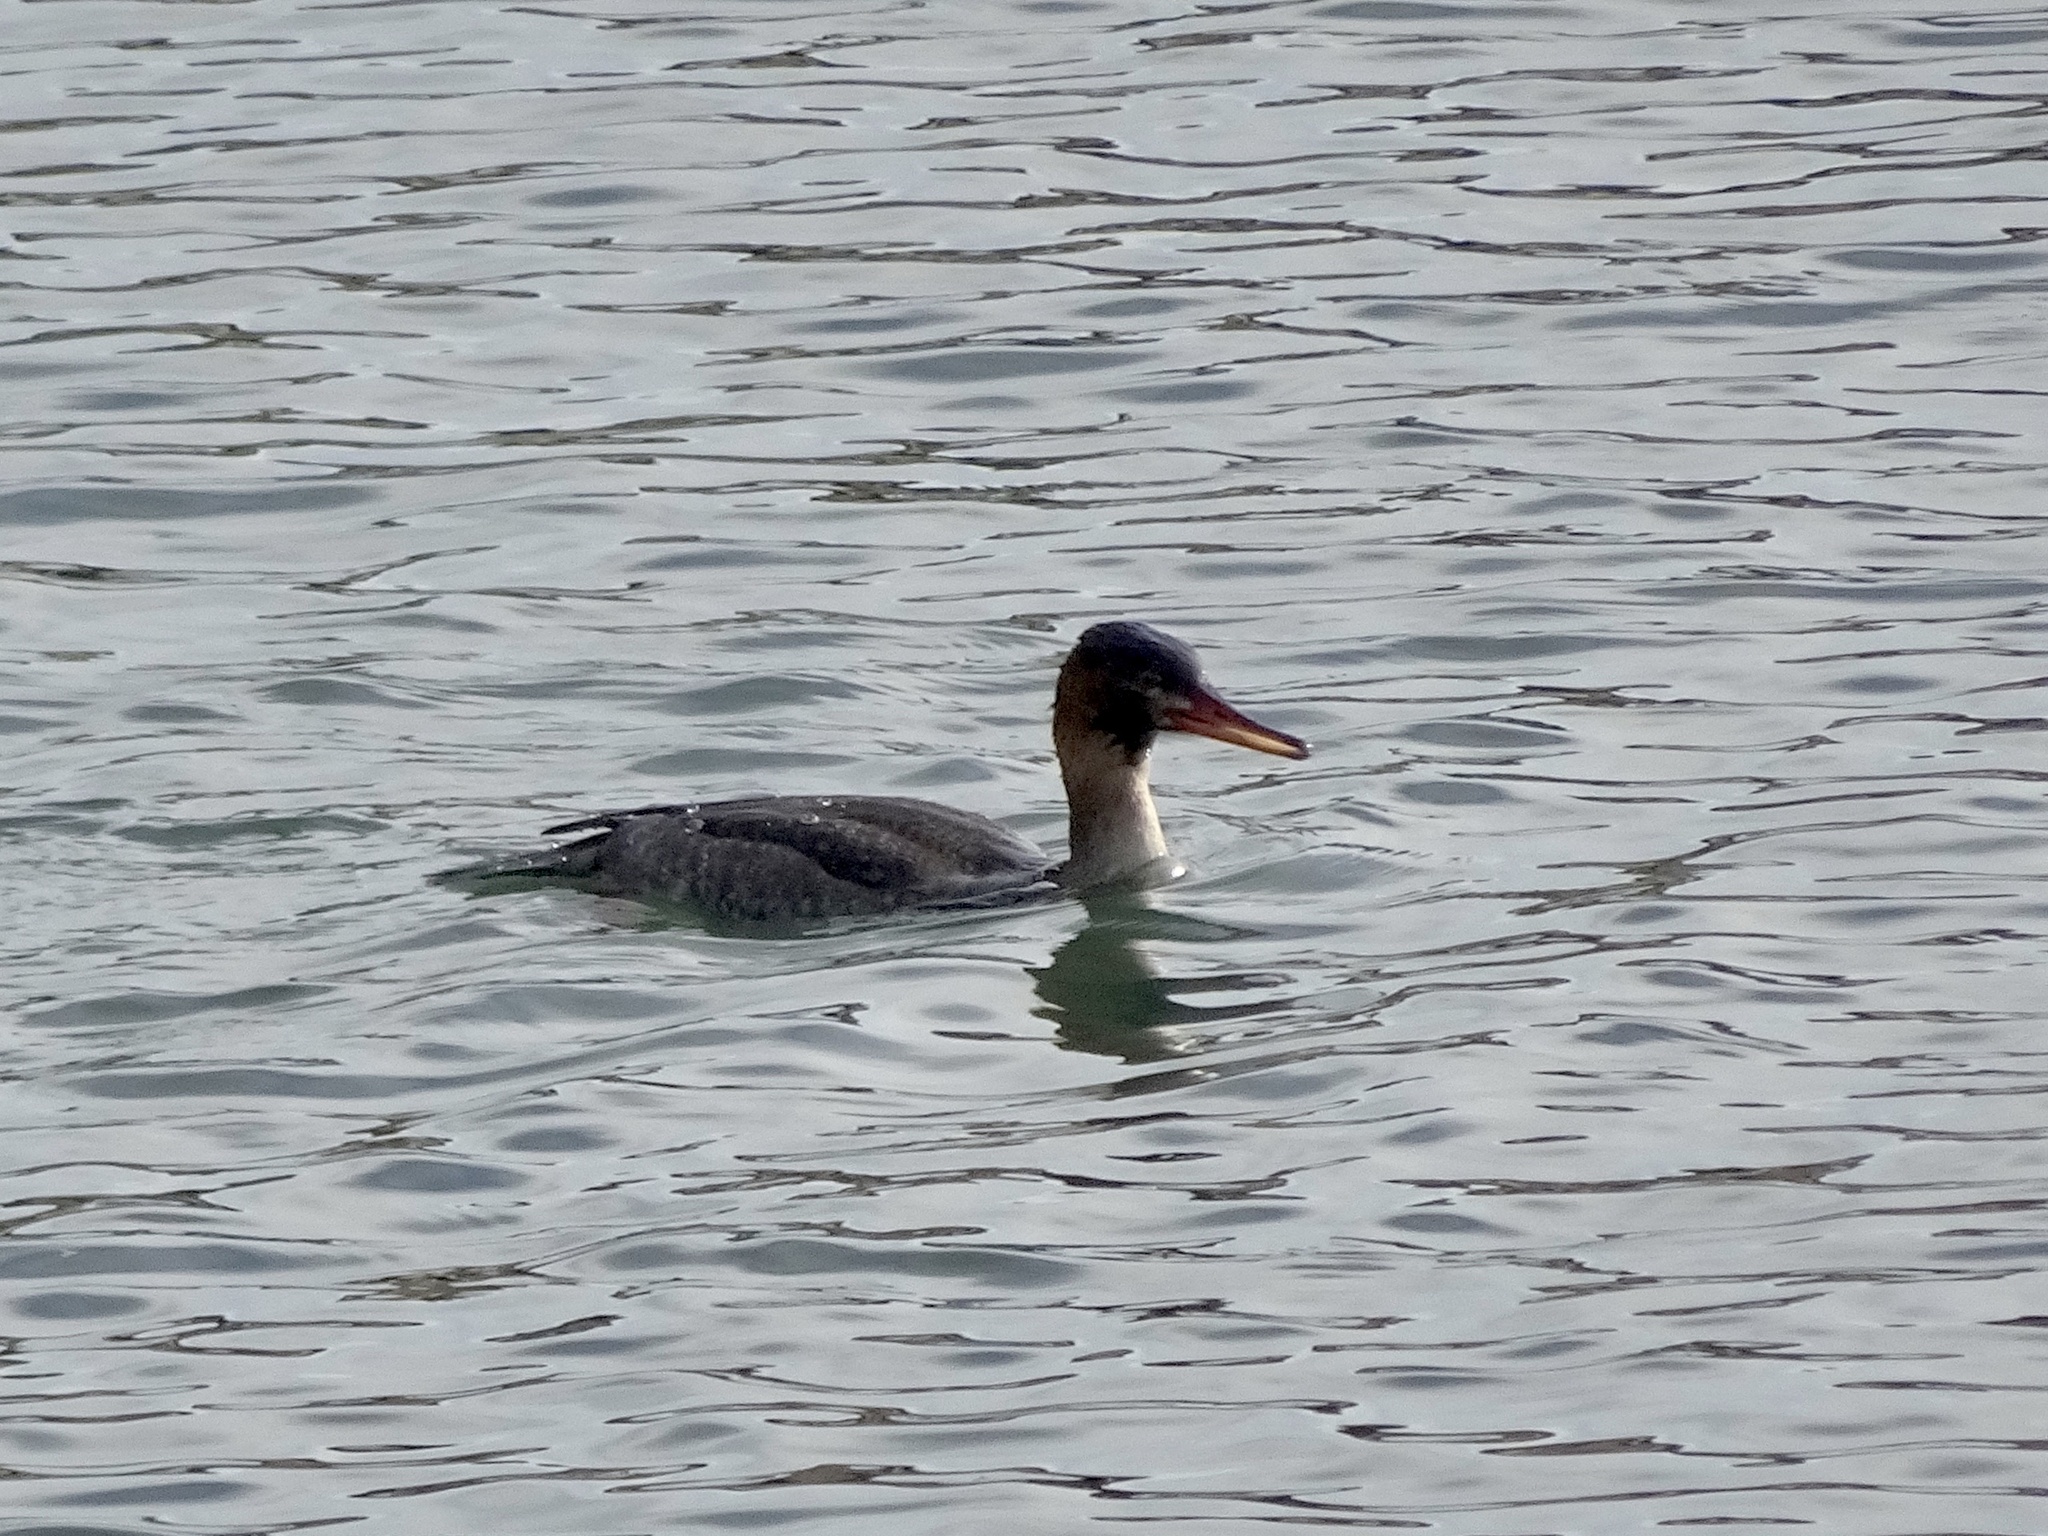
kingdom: Animalia
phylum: Chordata
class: Aves
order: Anseriformes
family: Anatidae
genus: Mergus
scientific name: Mergus serrator
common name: Red-breasted merganser
